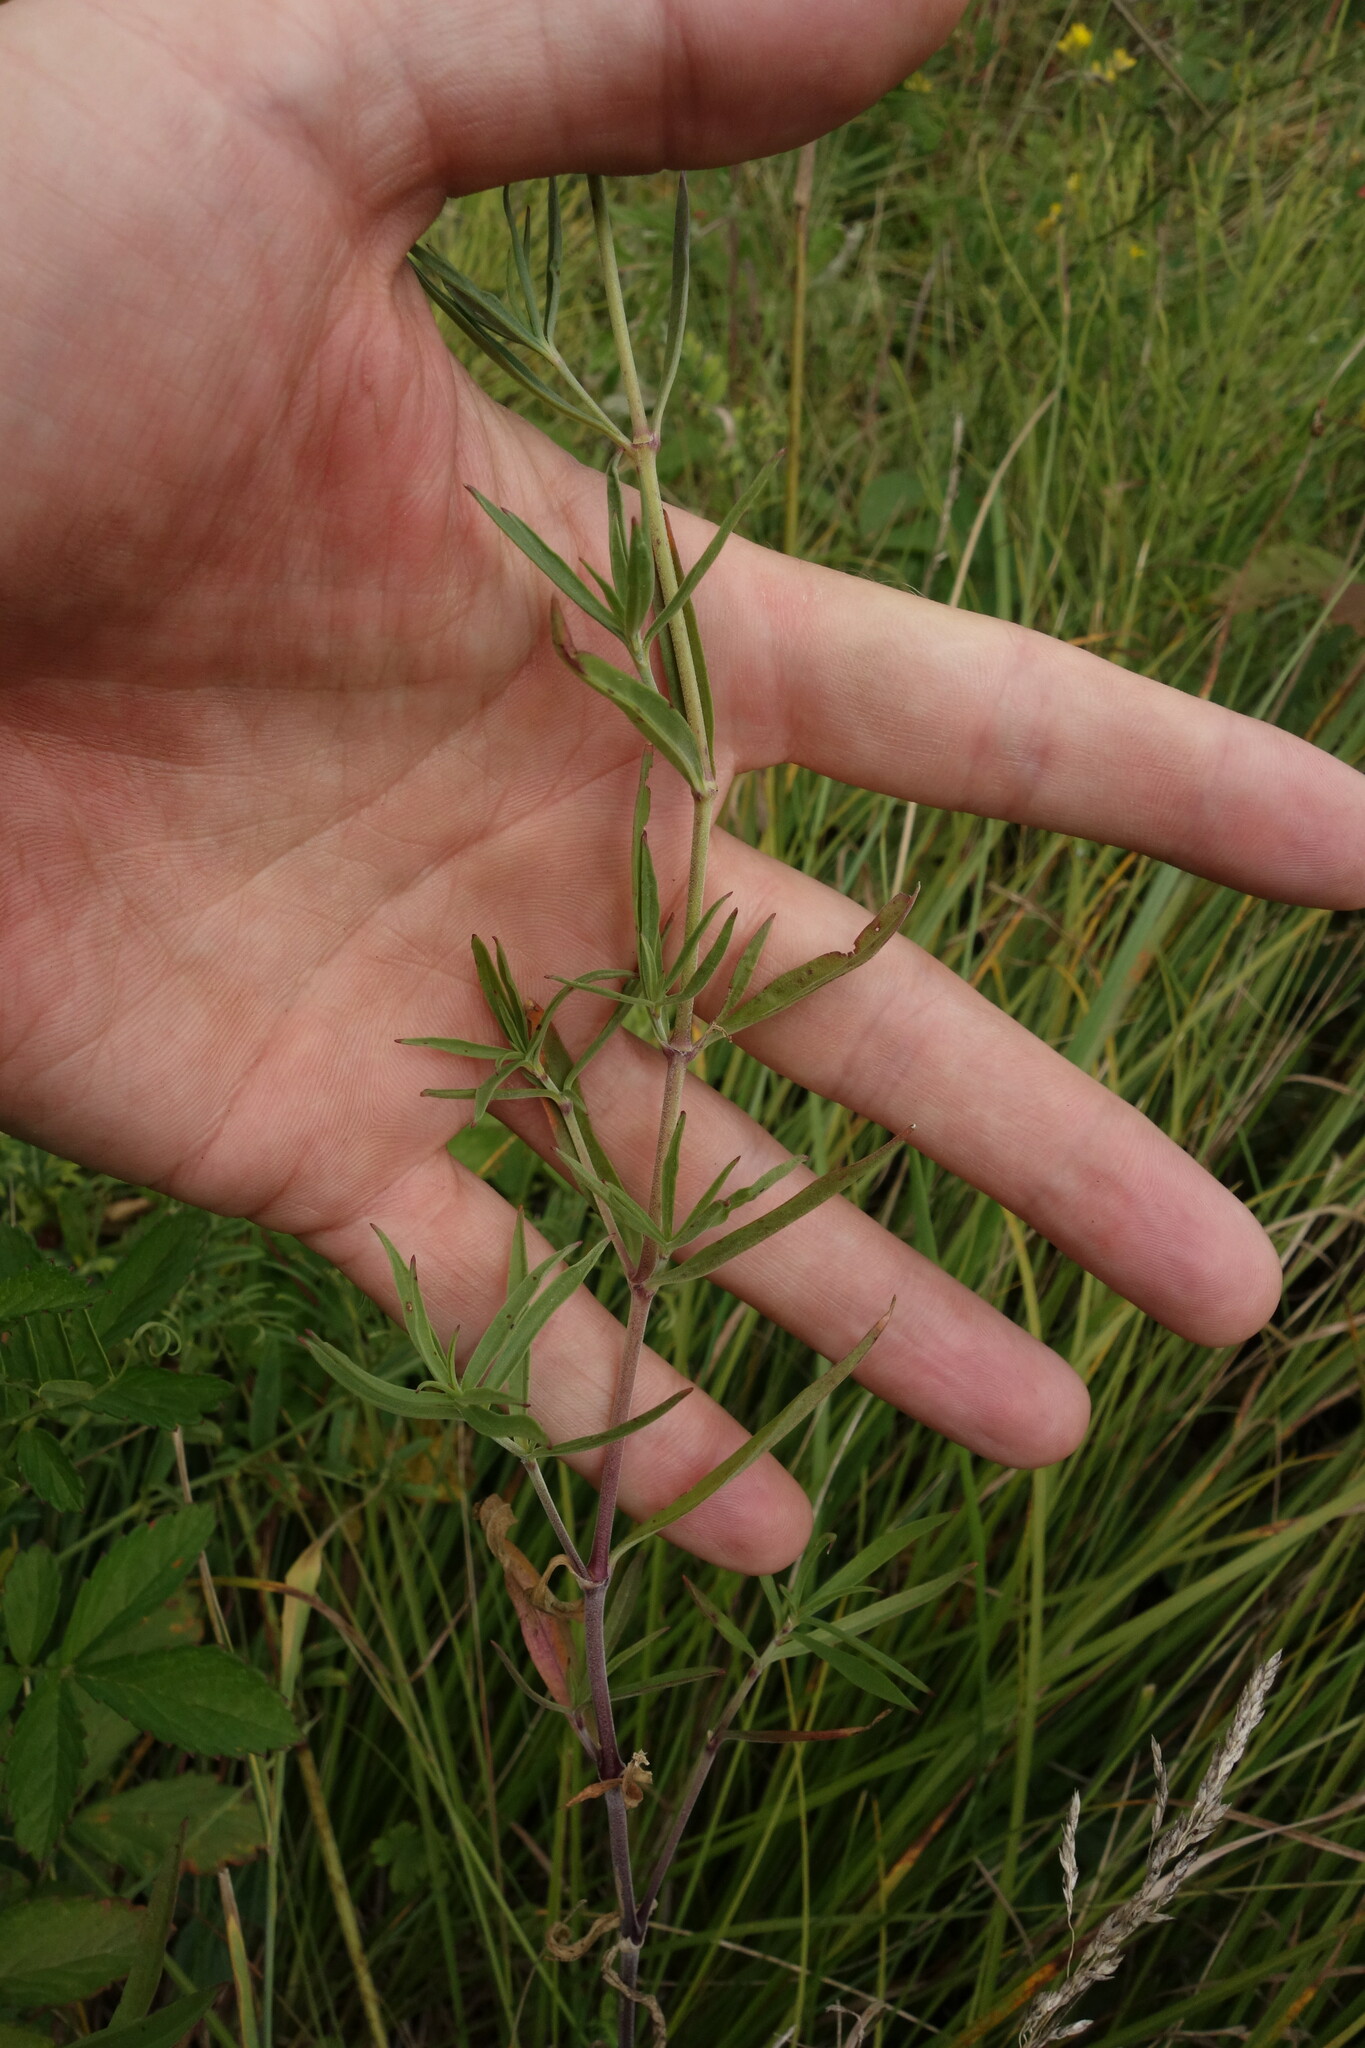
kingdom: Plantae
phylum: Tracheophyta
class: Magnoliopsida
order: Caryophyllales
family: Caryophyllaceae
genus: Silene
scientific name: Silene amoena
